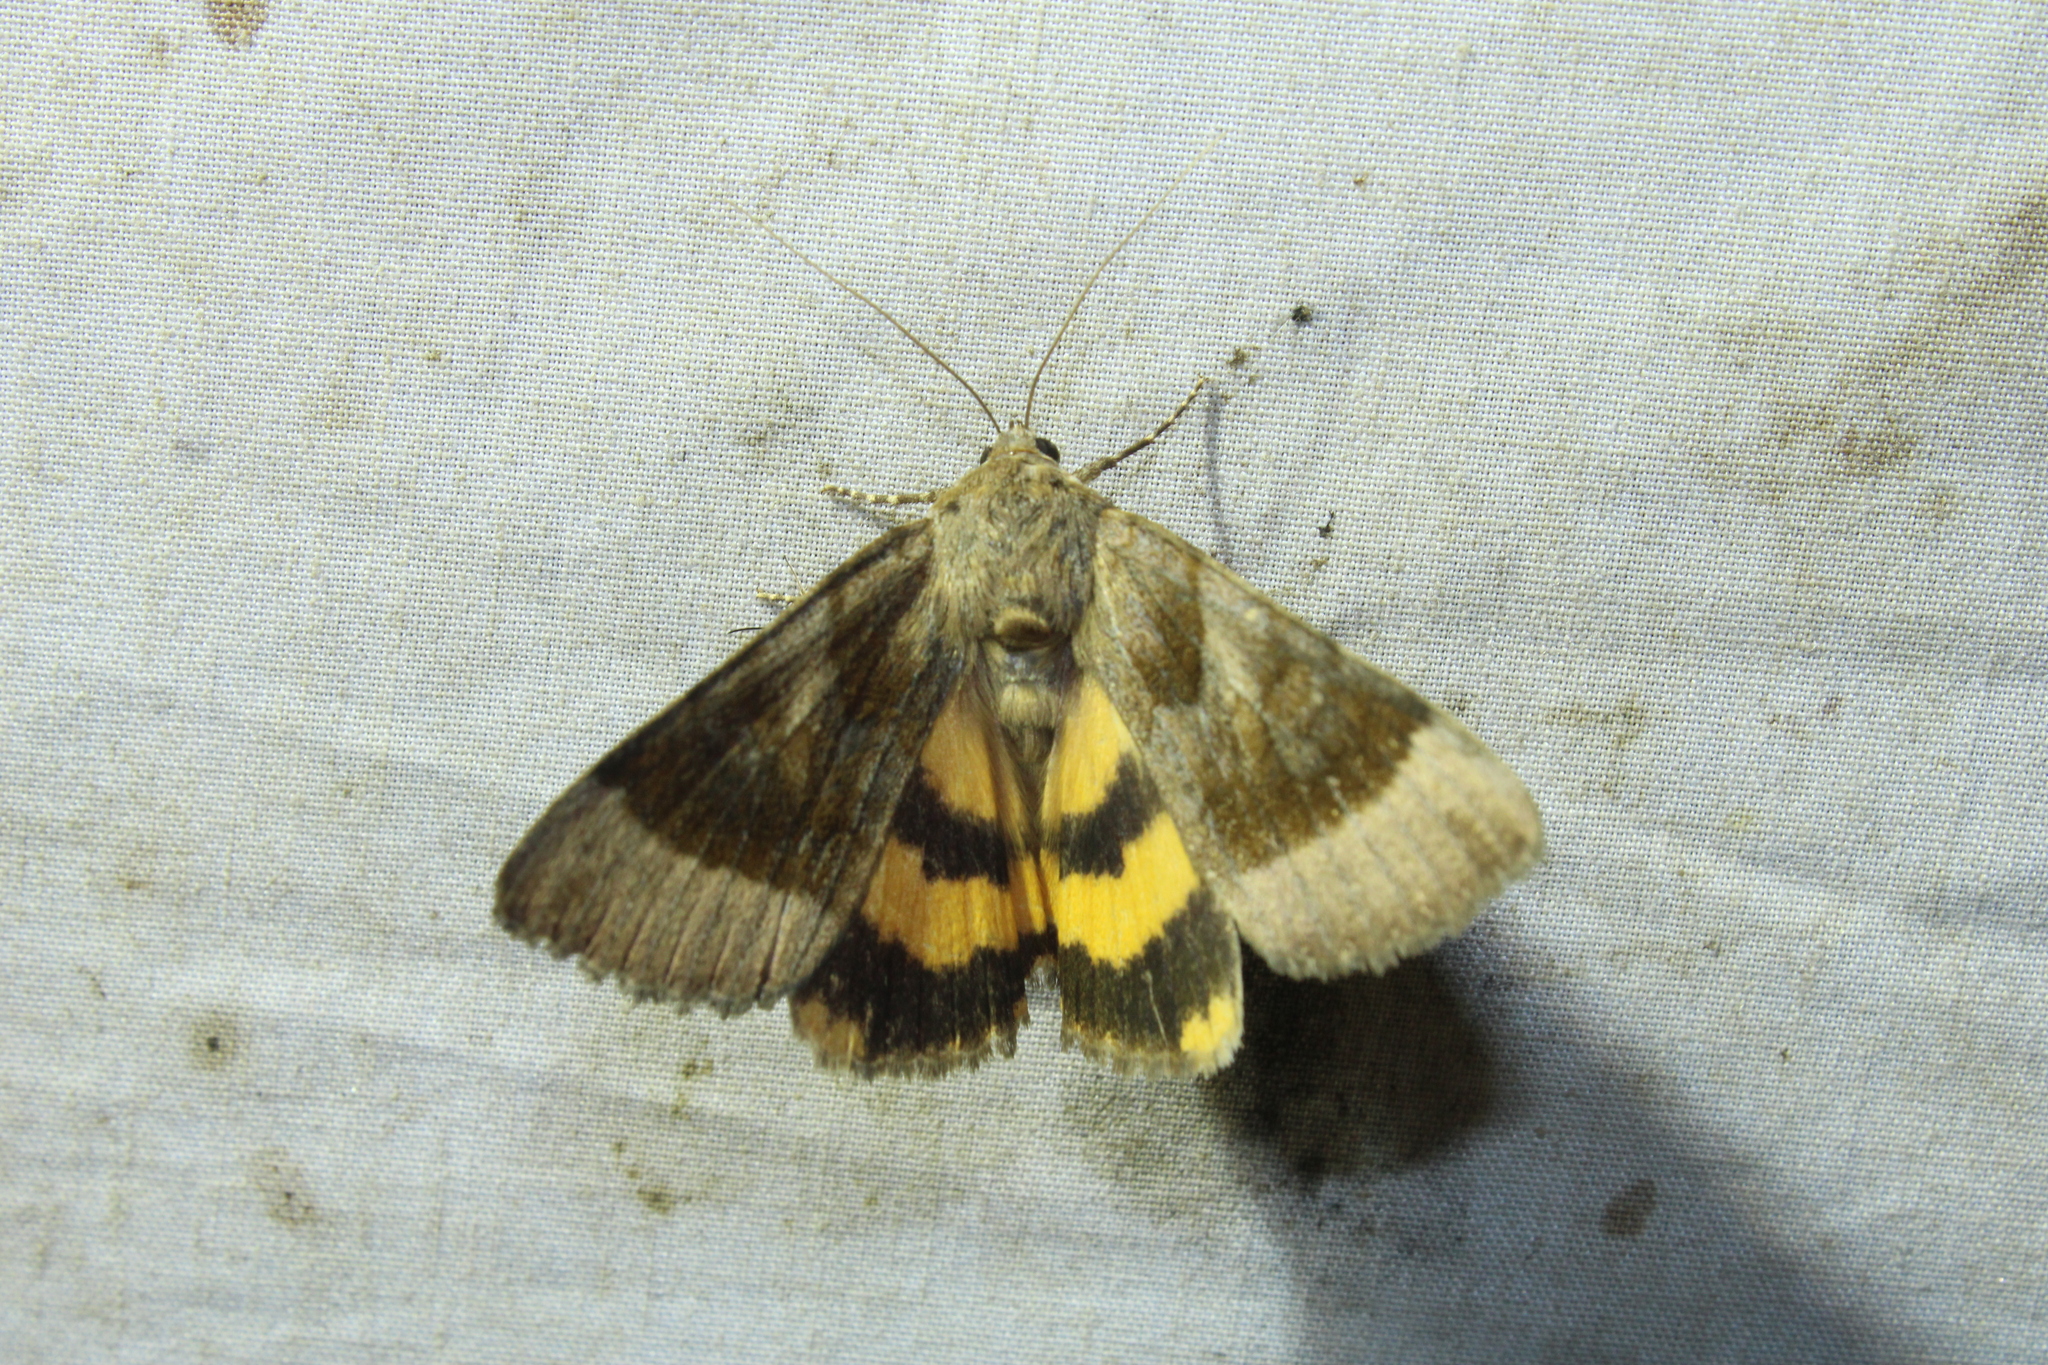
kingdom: Animalia
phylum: Arthropoda
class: Insecta
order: Lepidoptera
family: Erebidae
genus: Catocala
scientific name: Catocala badia
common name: Bay underwing
